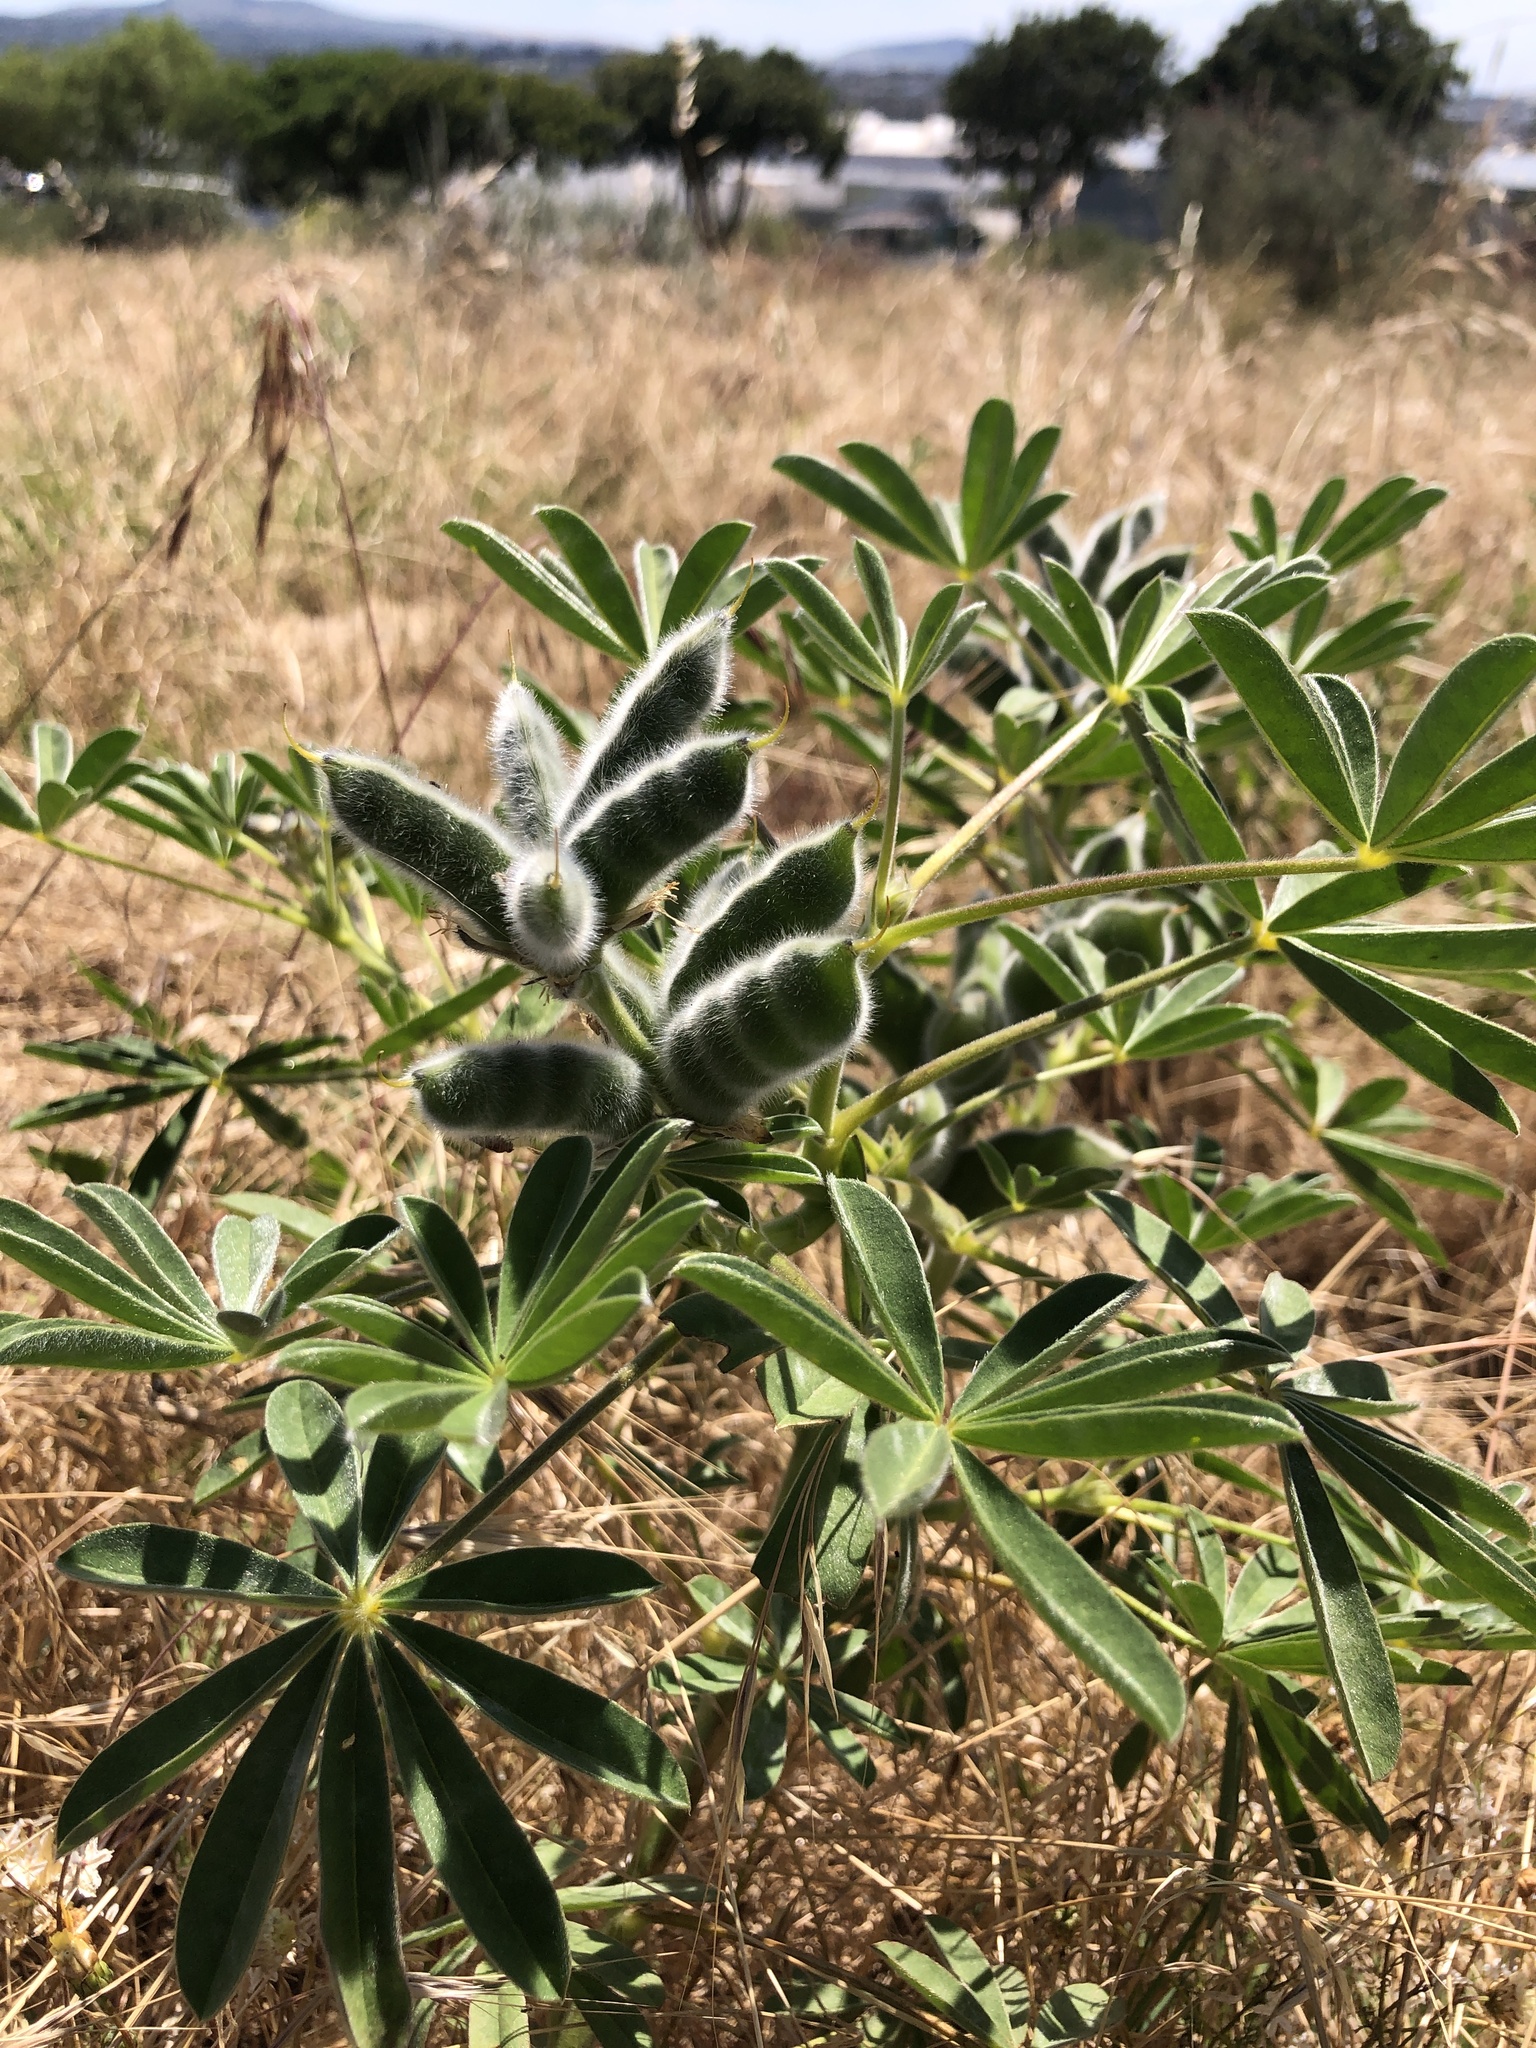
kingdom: Plantae
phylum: Tracheophyta
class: Magnoliopsida
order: Fabales
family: Fabaceae
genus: Lupinus
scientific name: Lupinus cosentinii
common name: Hairy blue lupin
